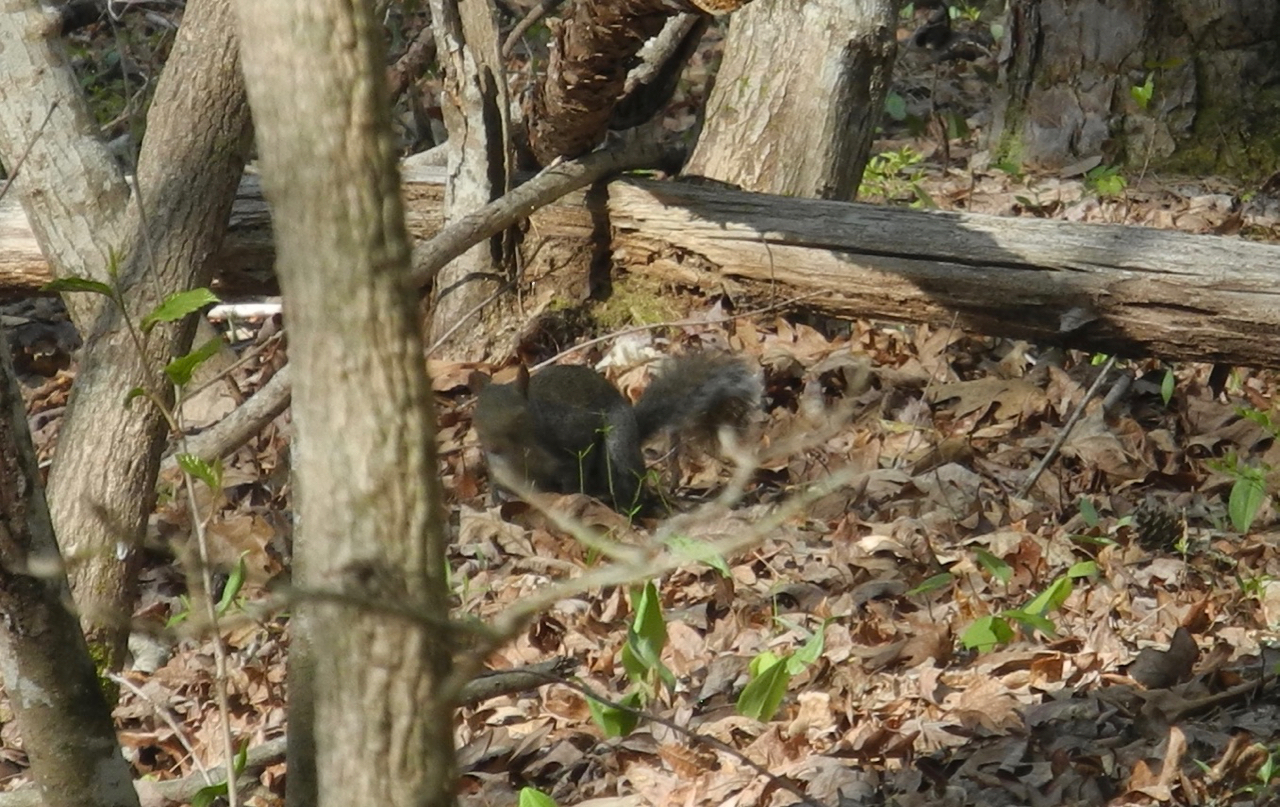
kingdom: Animalia
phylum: Chordata
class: Mammalia
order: Rodentia
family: Sciuridae
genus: Sciurus
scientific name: Sciurus carolinensis
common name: Eastern gray squirrel
